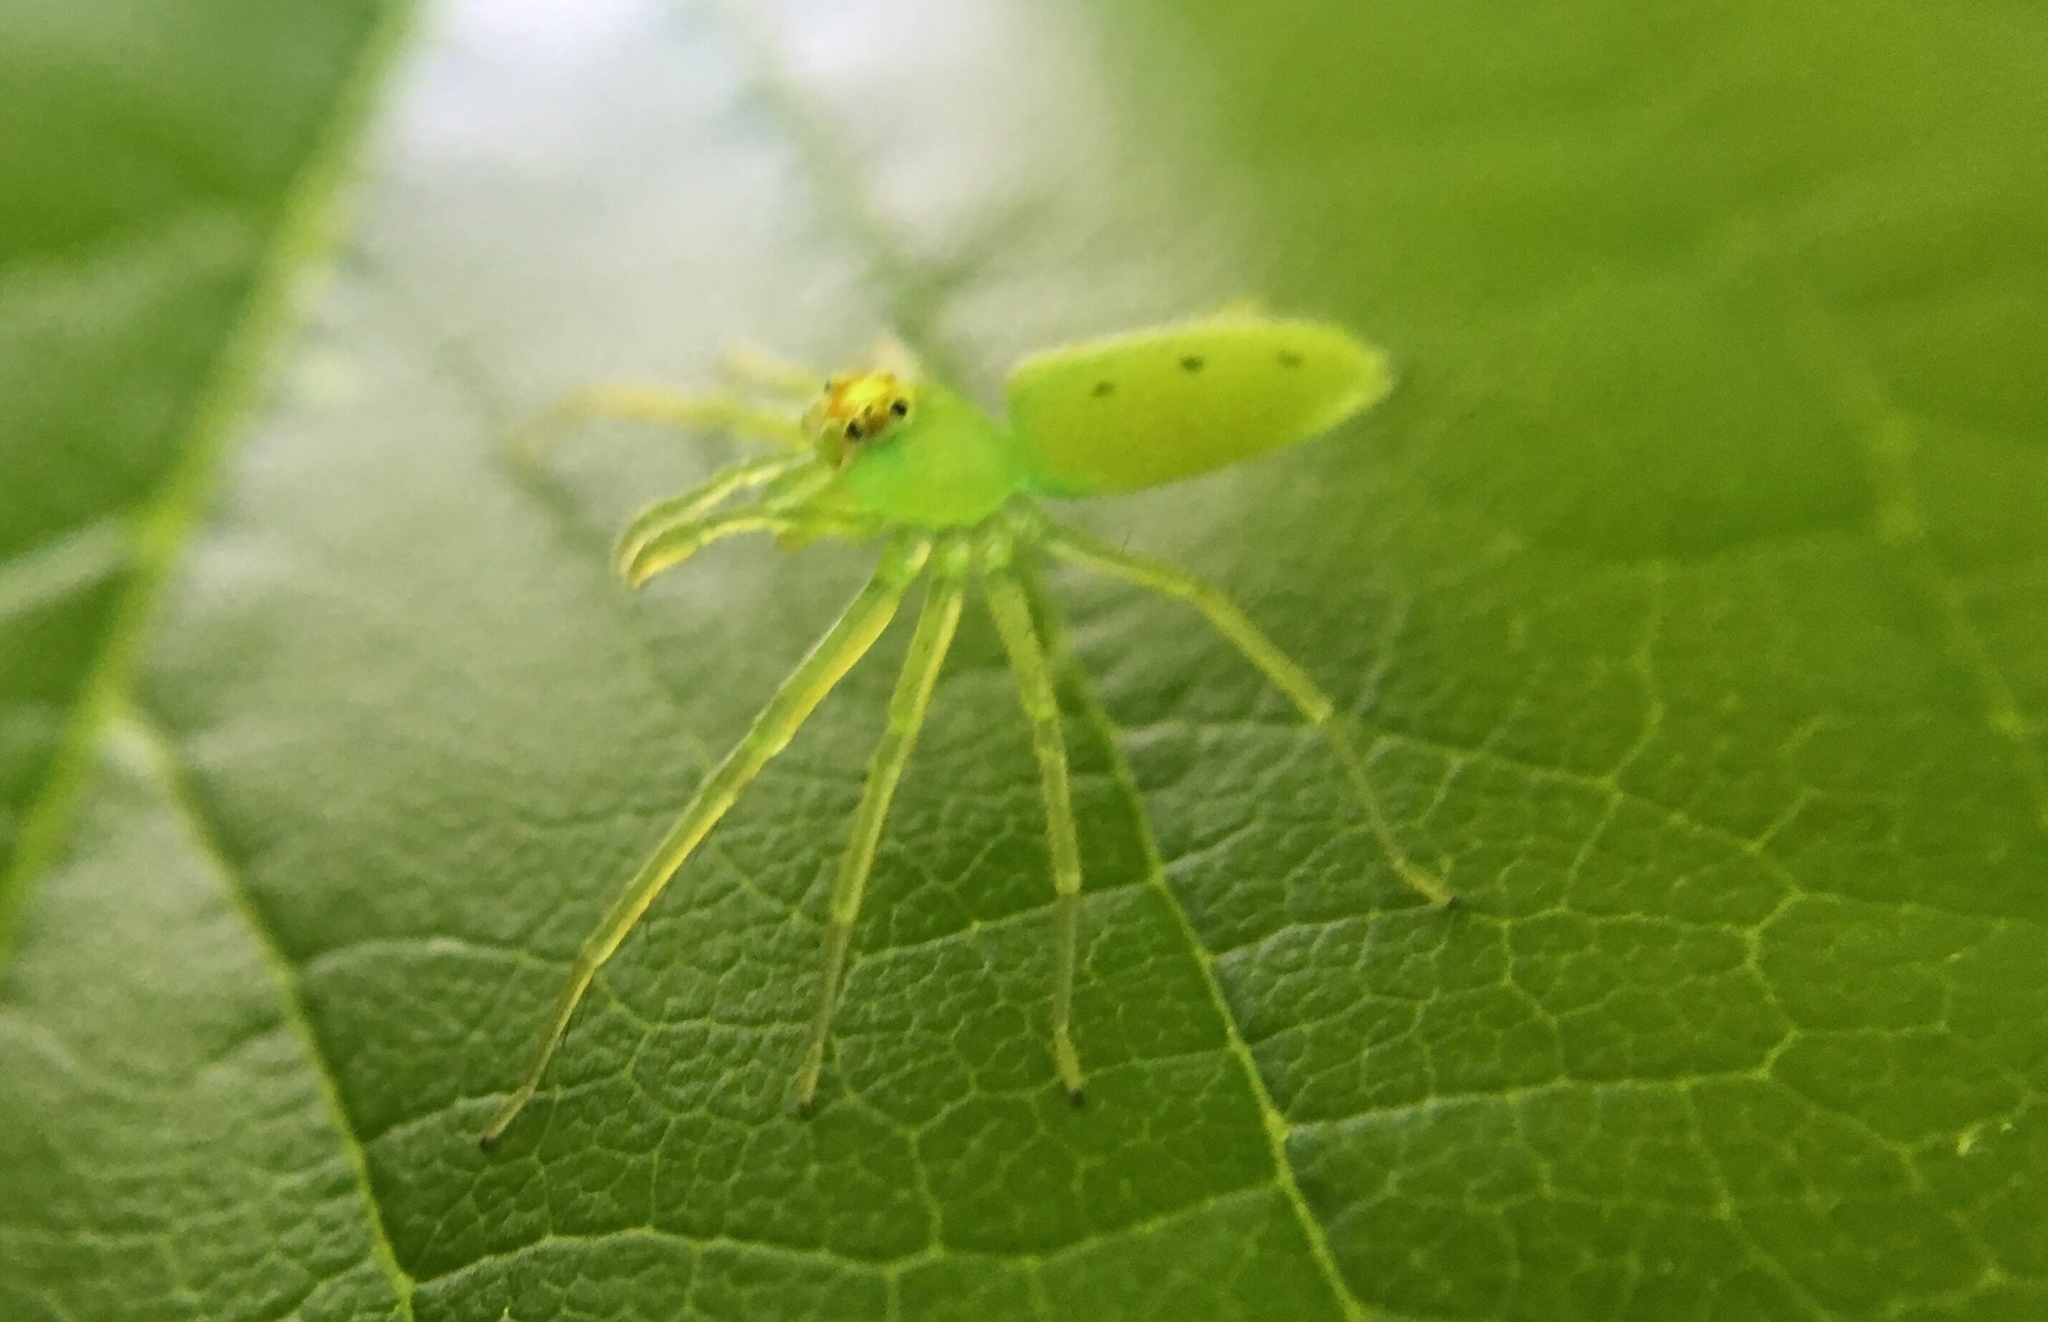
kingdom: Animalia
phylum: Arthropoda
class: Arachnida
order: Araneae
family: Salticidae
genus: Lyssomanes
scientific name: Lyssomanes viridis
